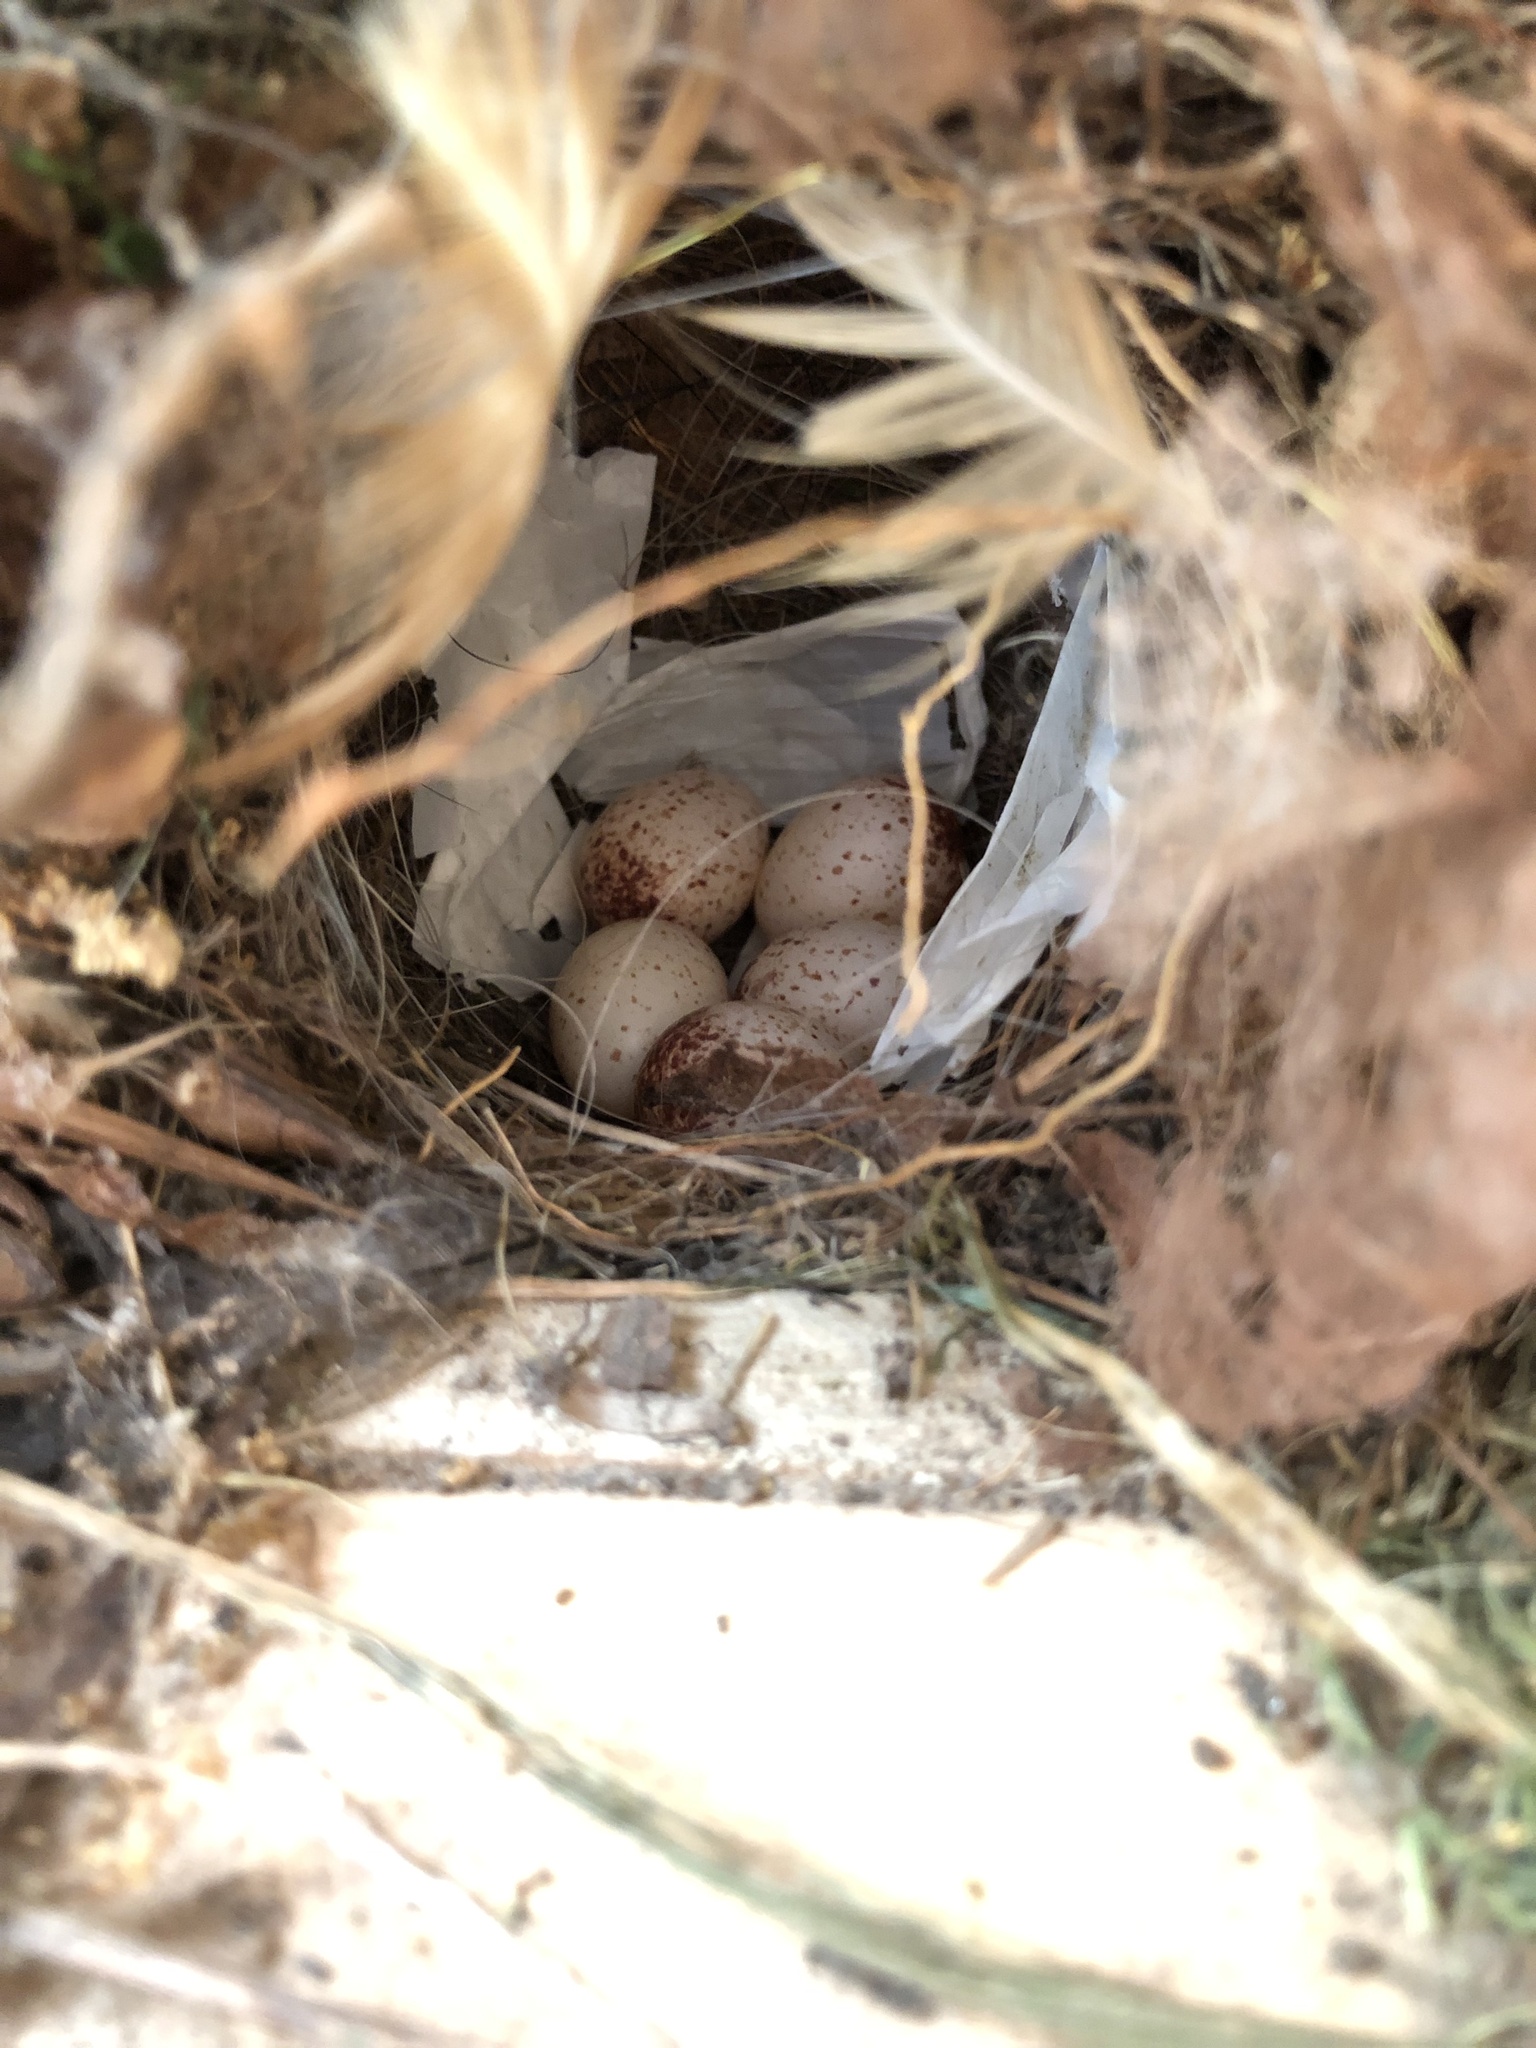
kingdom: Animalia
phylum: Chordata
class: Aves
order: Passeriformes
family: Troglodytidae
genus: Thryothorus
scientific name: Thryothorus ludovicianus
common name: Carolina wren
